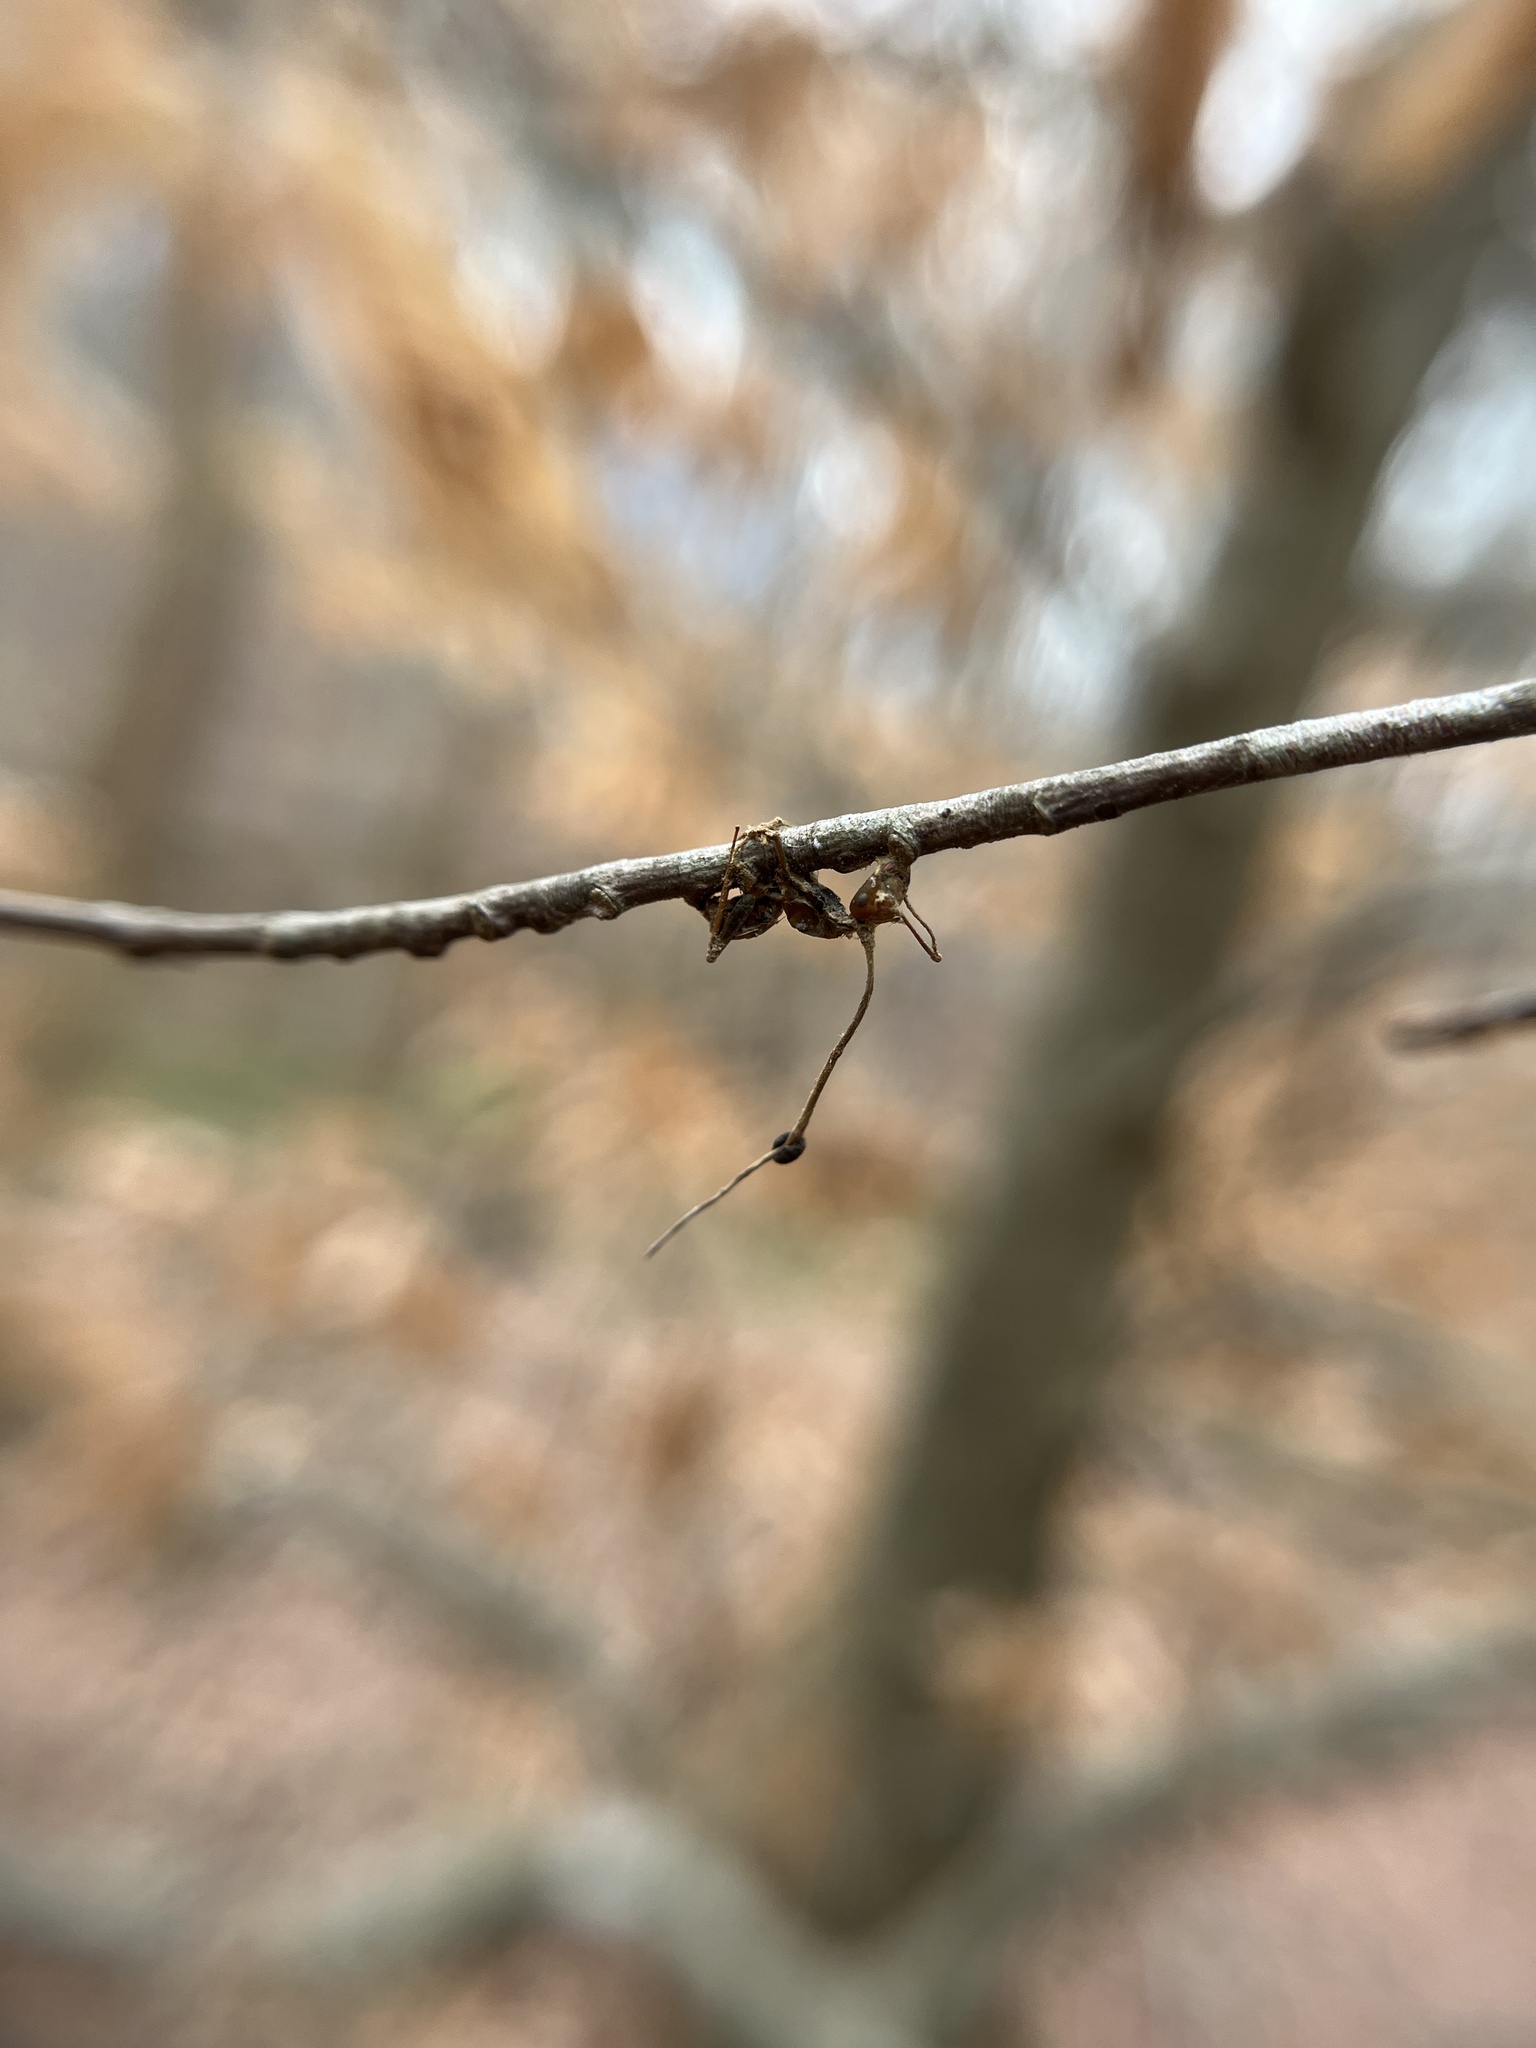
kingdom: Fungi
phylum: Ascomycota
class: Sordariomycetes
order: Hypocreales
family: Ophiocordycipitaceae
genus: Ophiocordyceps
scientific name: Ophiocordyceps kimflemingiae
